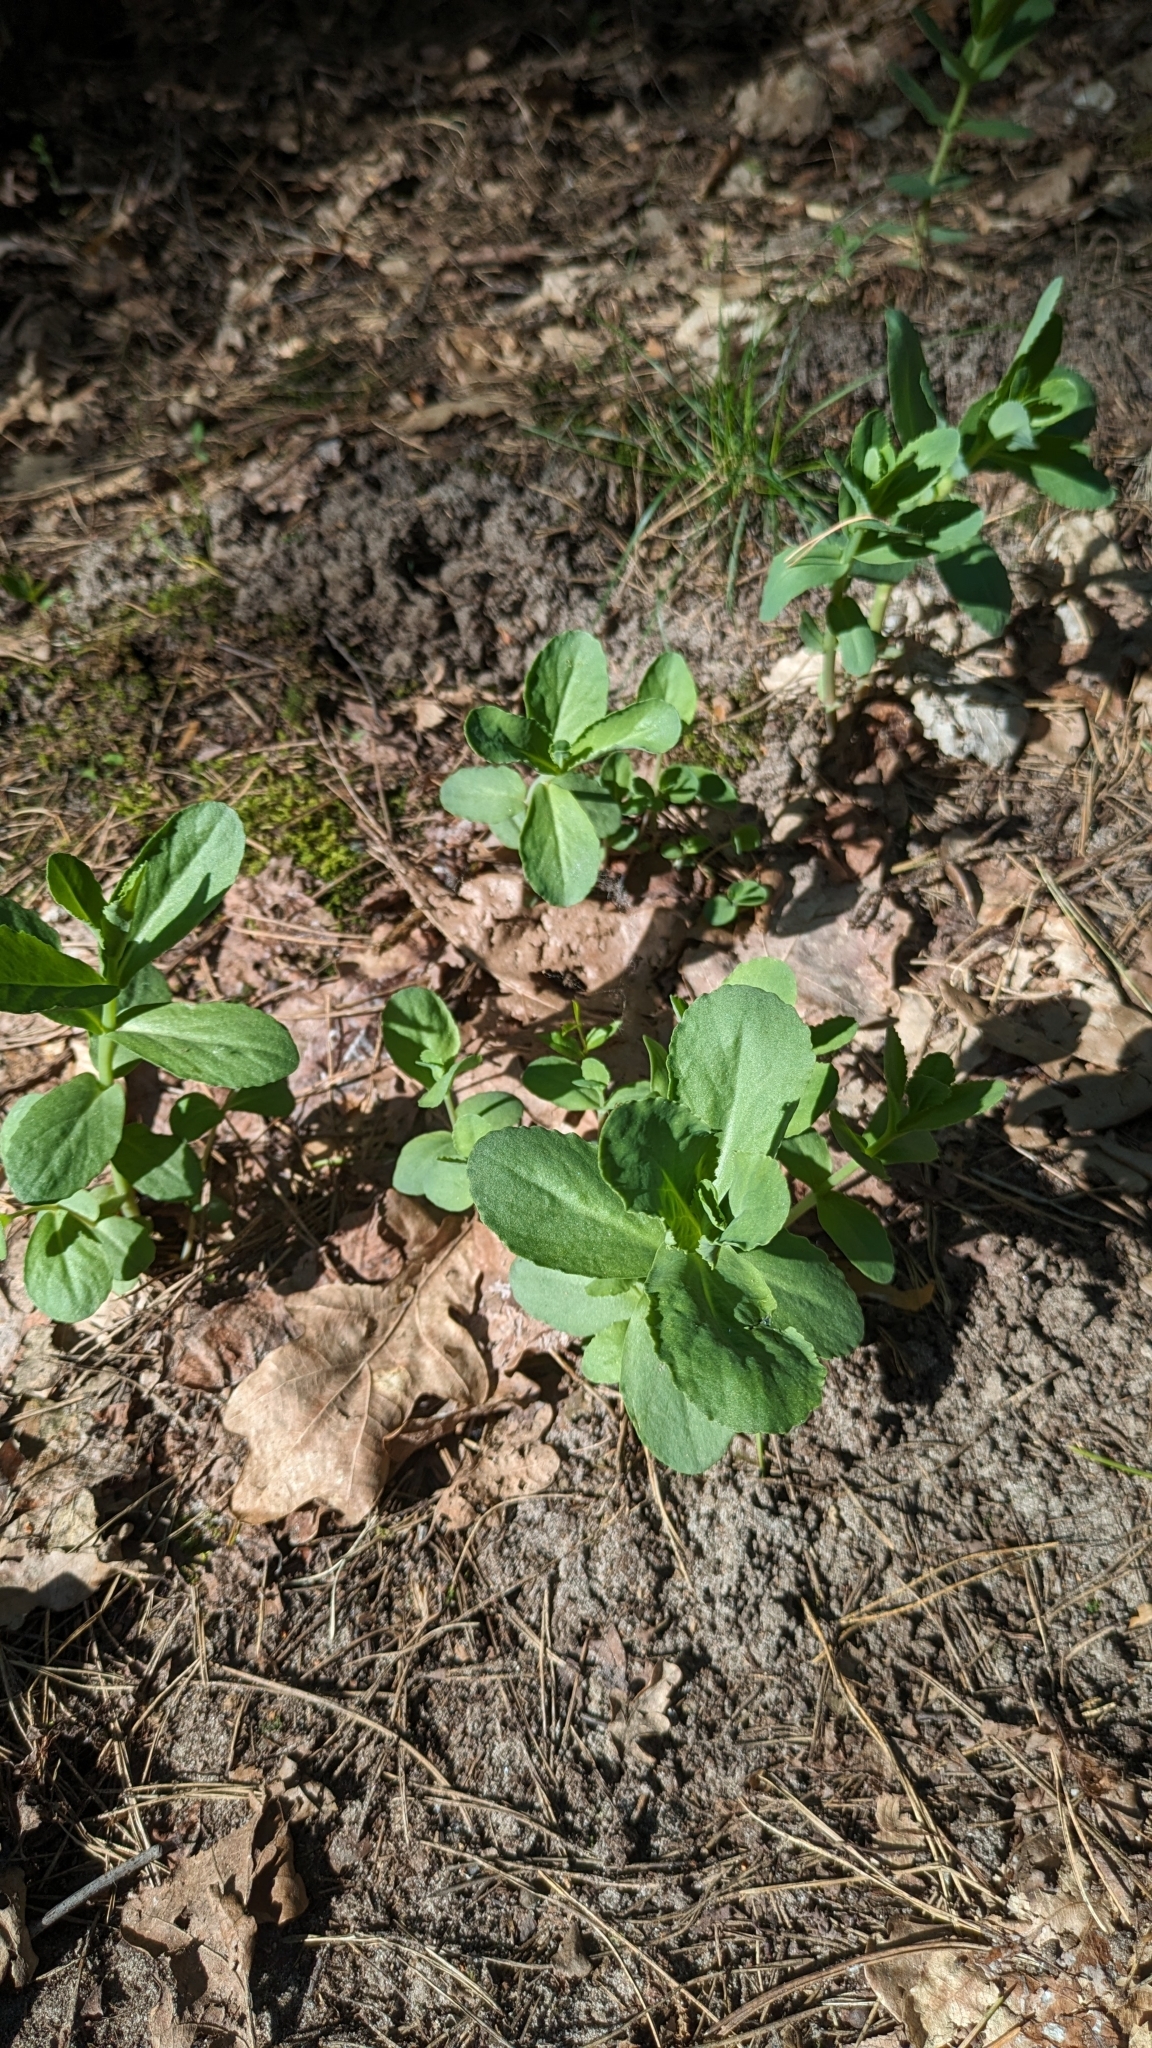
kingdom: Plantae
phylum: Tracheophyta
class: Magnoliopsida
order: Saxifragales
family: Crassulaceae
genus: Hylotelephium
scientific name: Hylotelephium maximum
